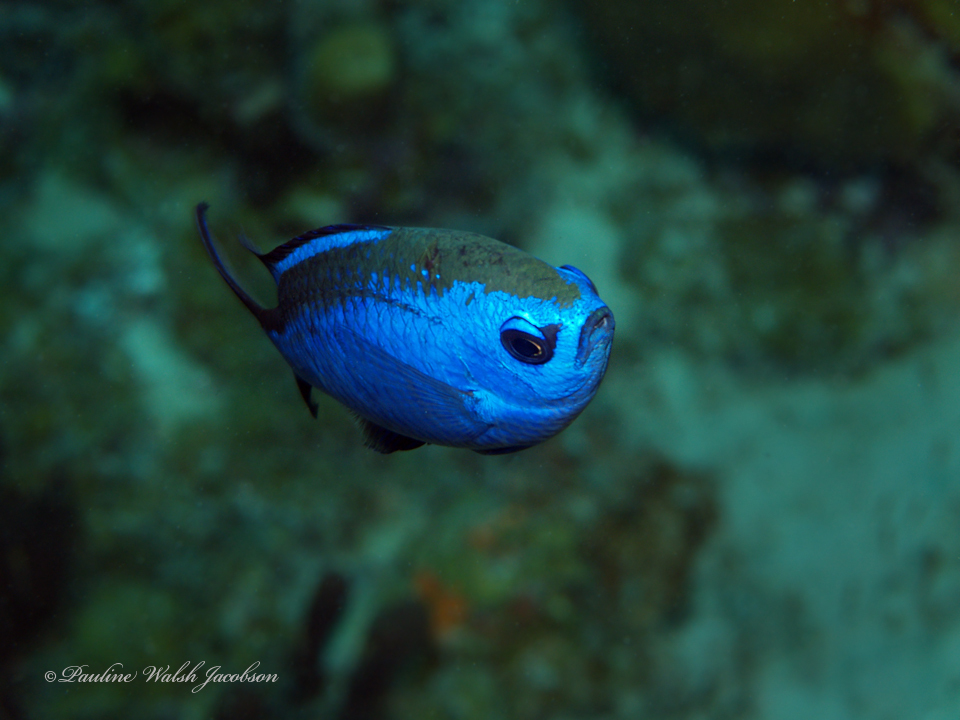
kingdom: Animalia
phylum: Chordata
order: Perciformes
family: Pomacentridae
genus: Chromis
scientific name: Chromis cyanea
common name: Blue chromis
